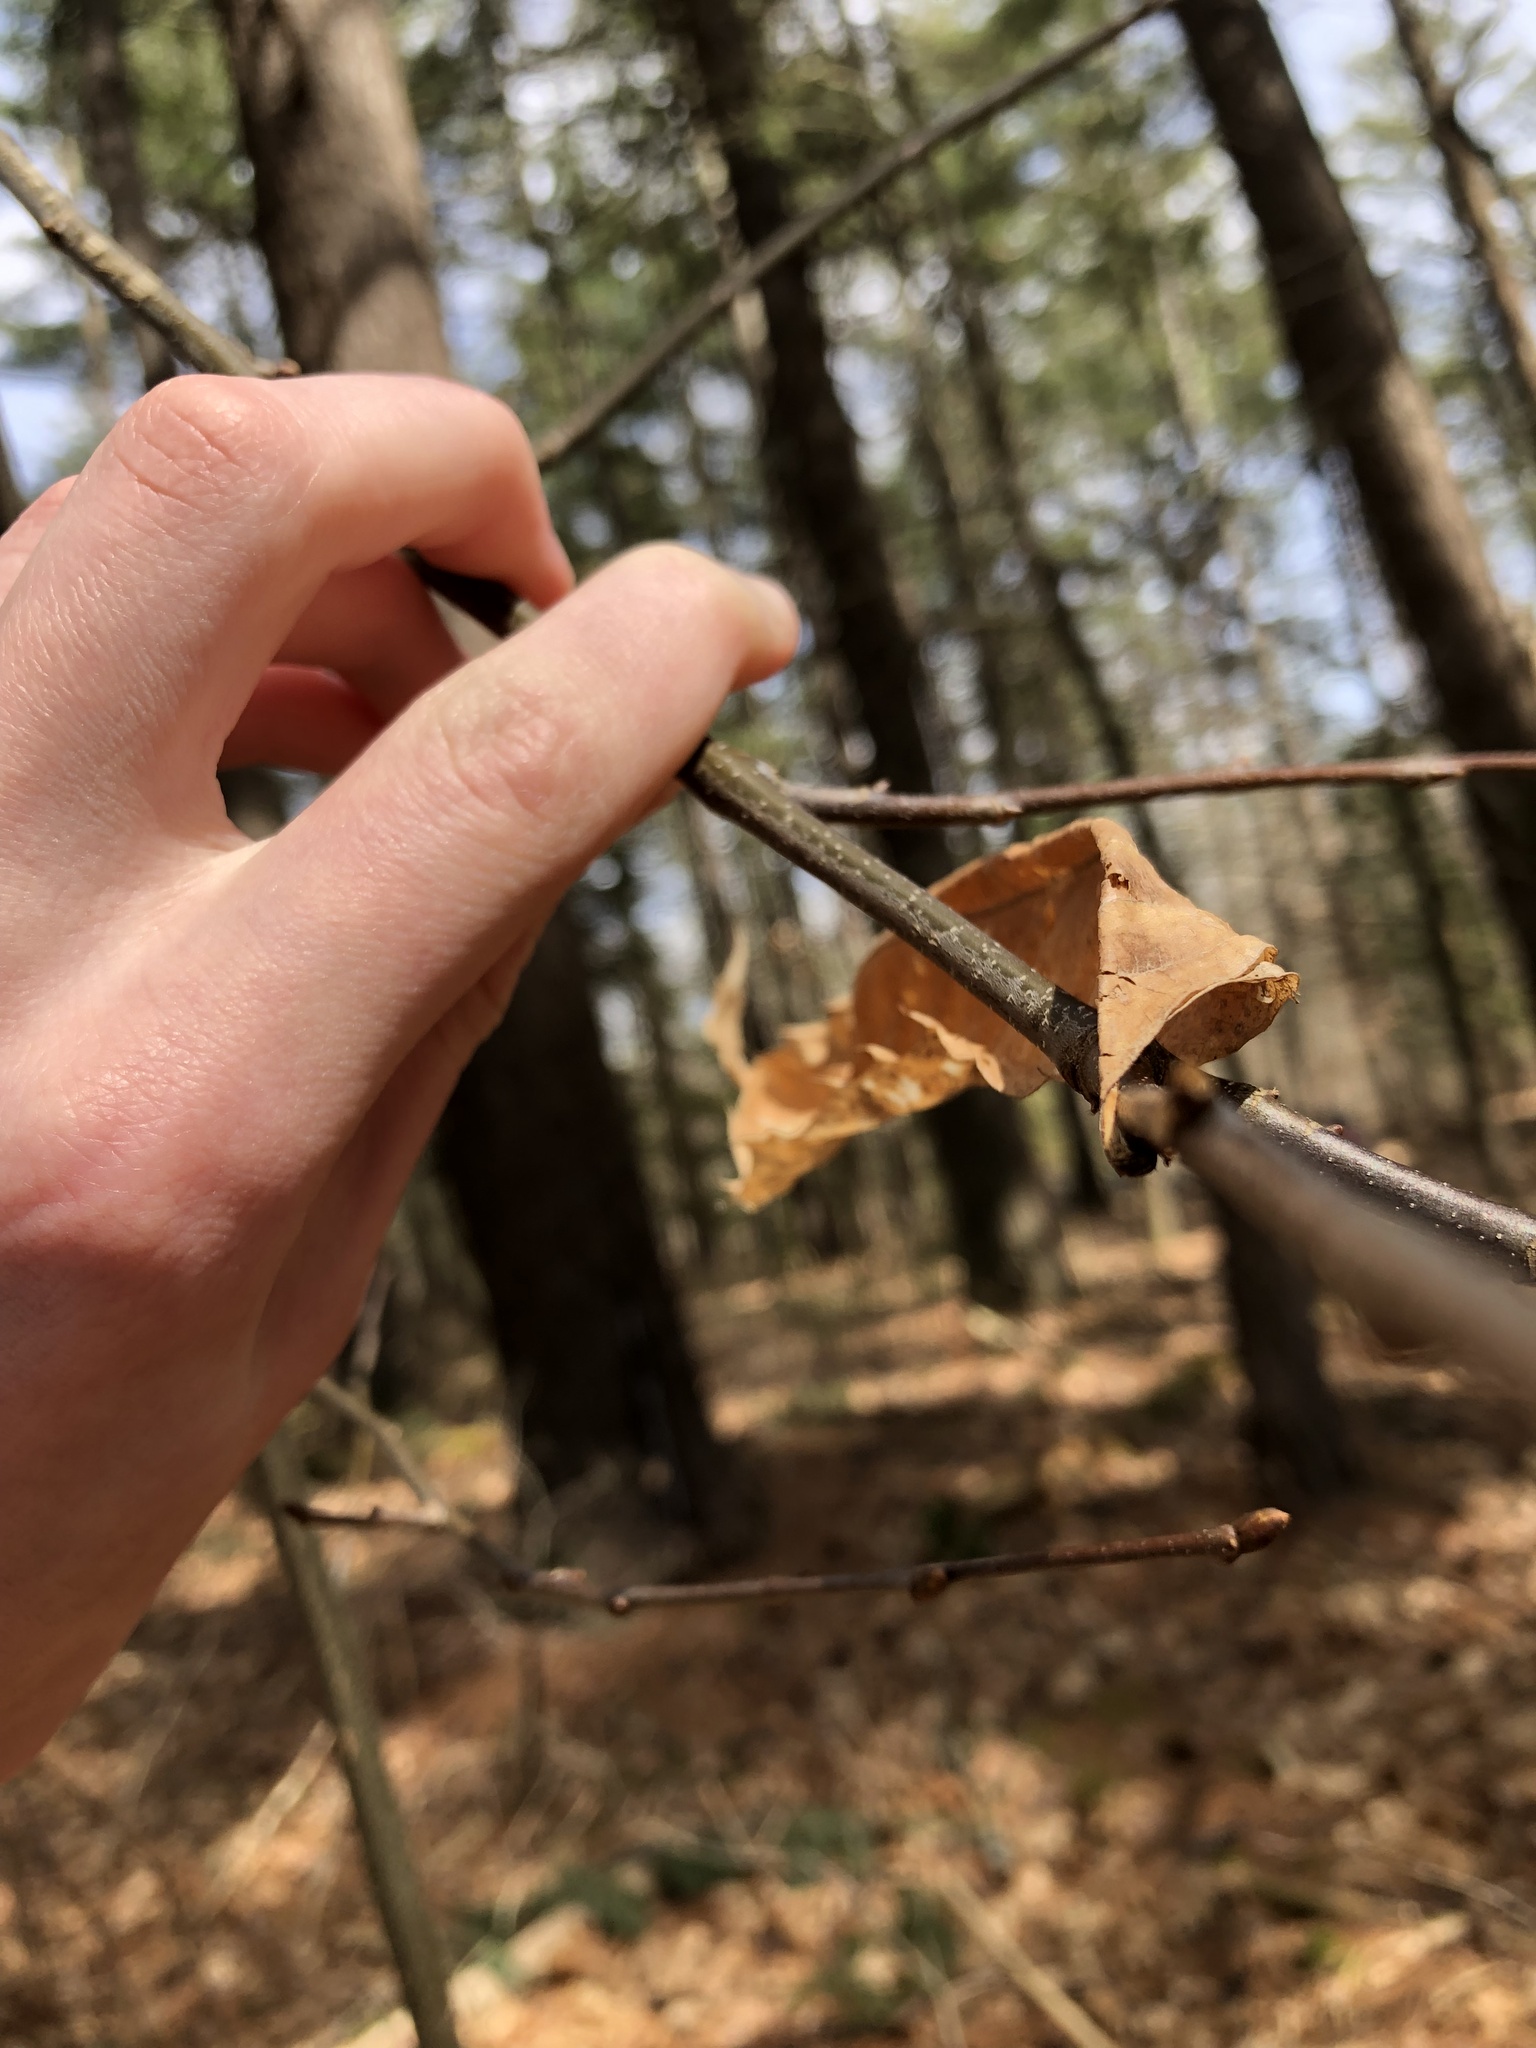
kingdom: Plantae
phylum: Tracheophyta
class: Magnoliopsida
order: Fagales
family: Fagaceae
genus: Castanea
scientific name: Castanea dentata
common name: American chestnut
